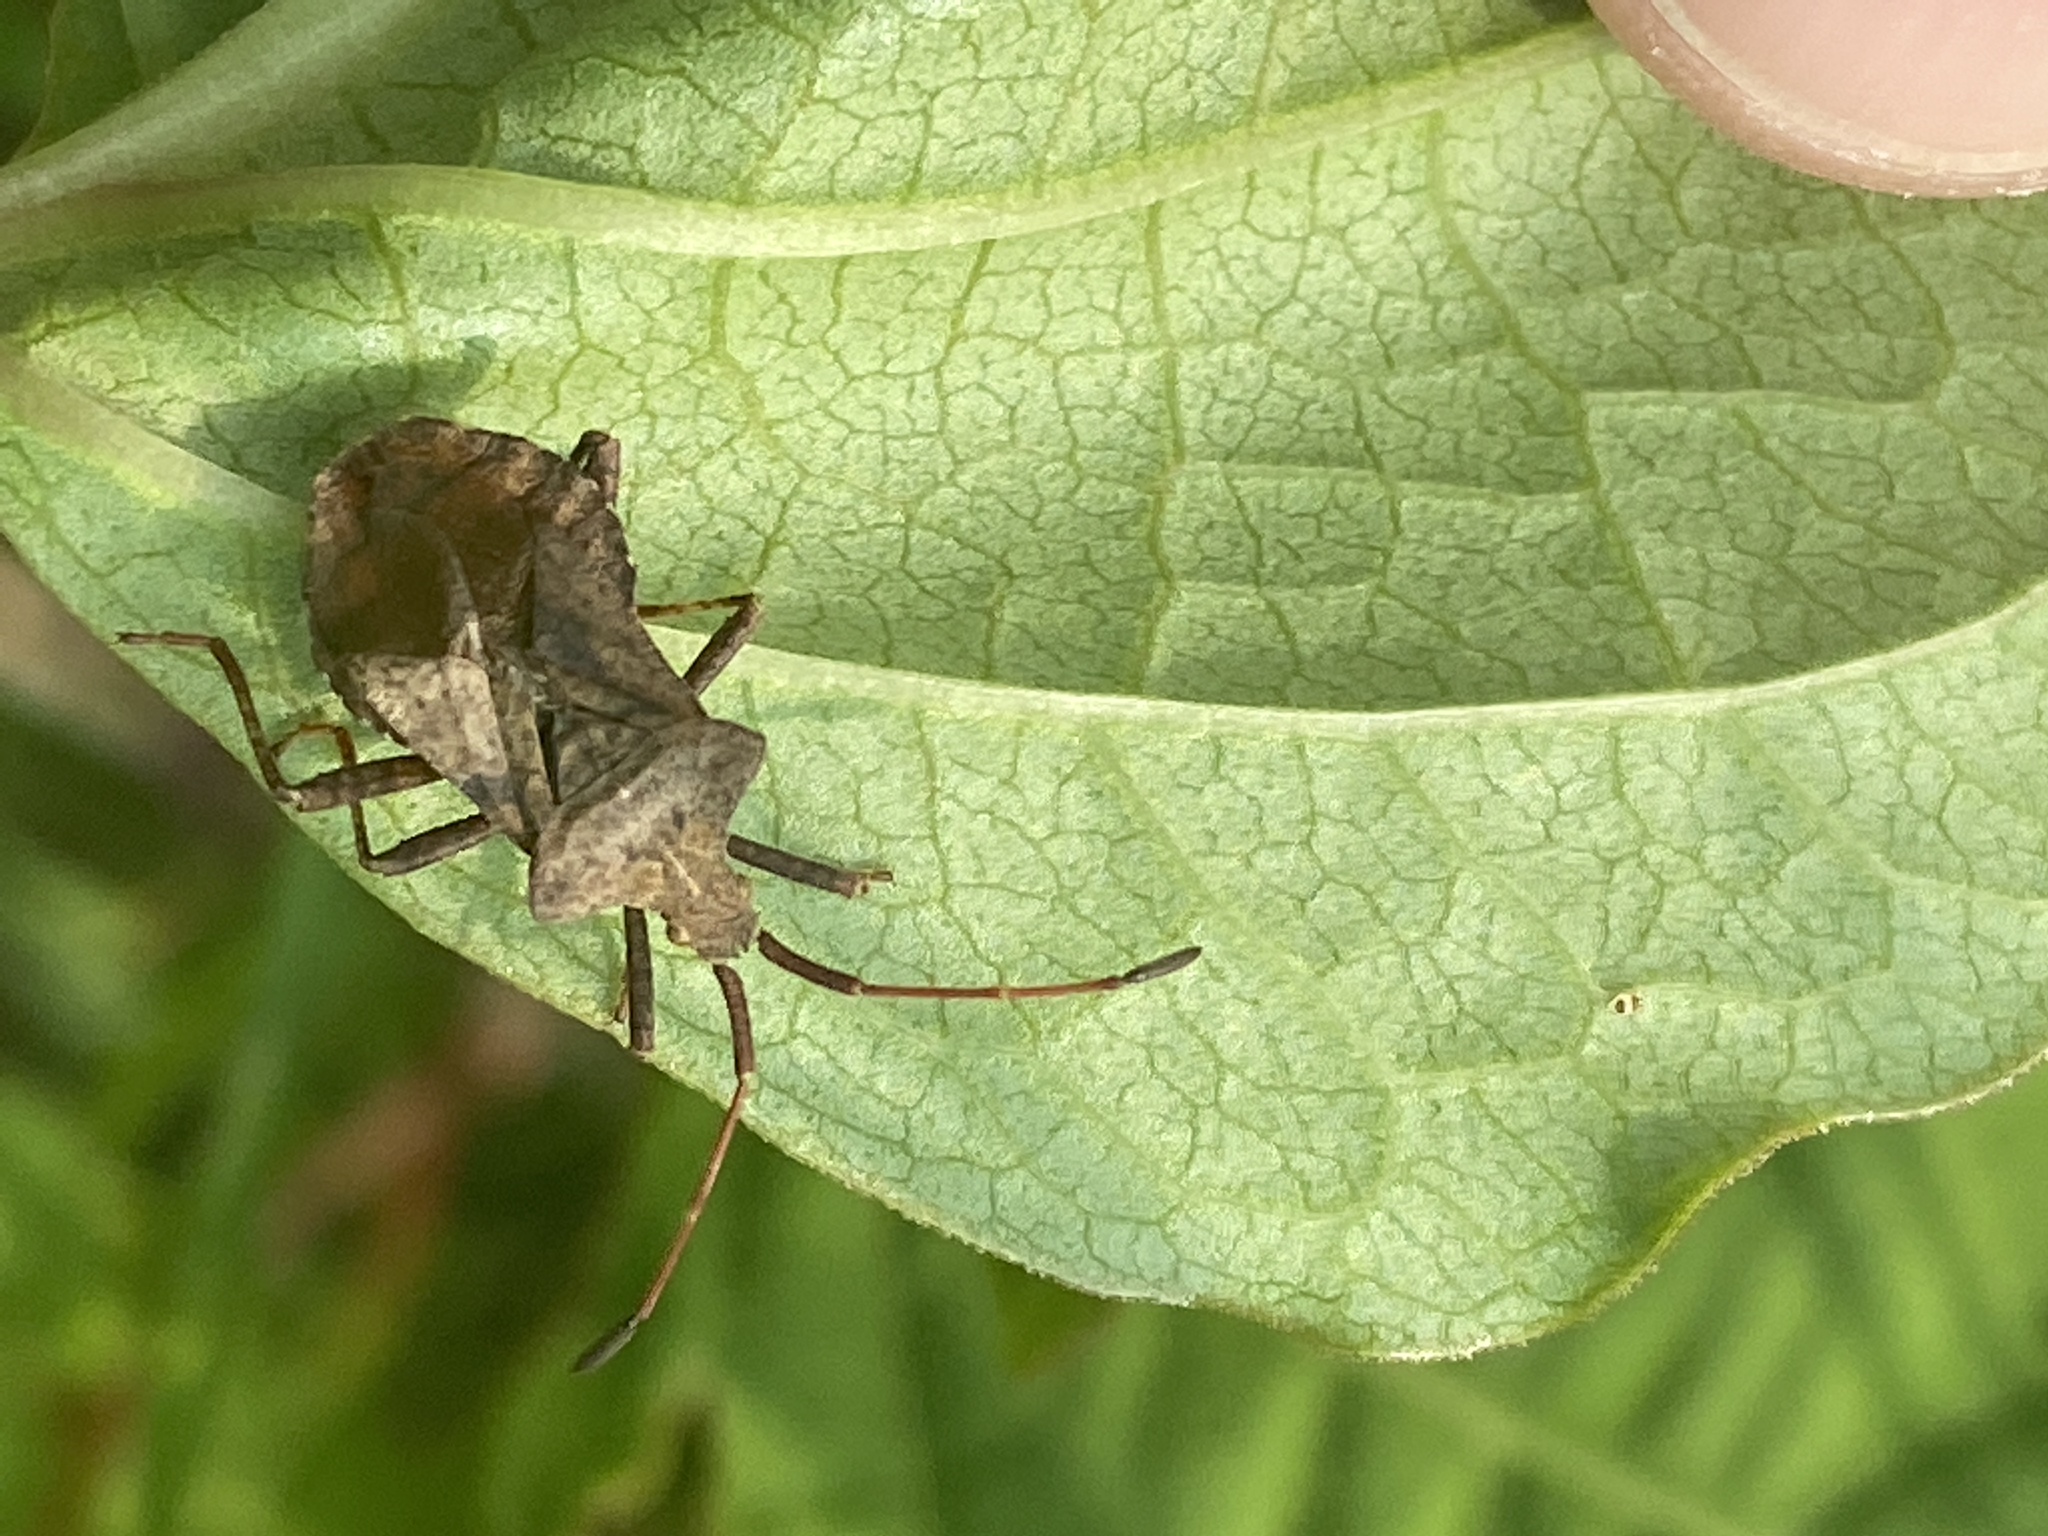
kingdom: Animalia
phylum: Arthropoda
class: Insecta
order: Hemiptera
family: Coreidae
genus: Coreus
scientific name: Coreus marginatus
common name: Dock bug
